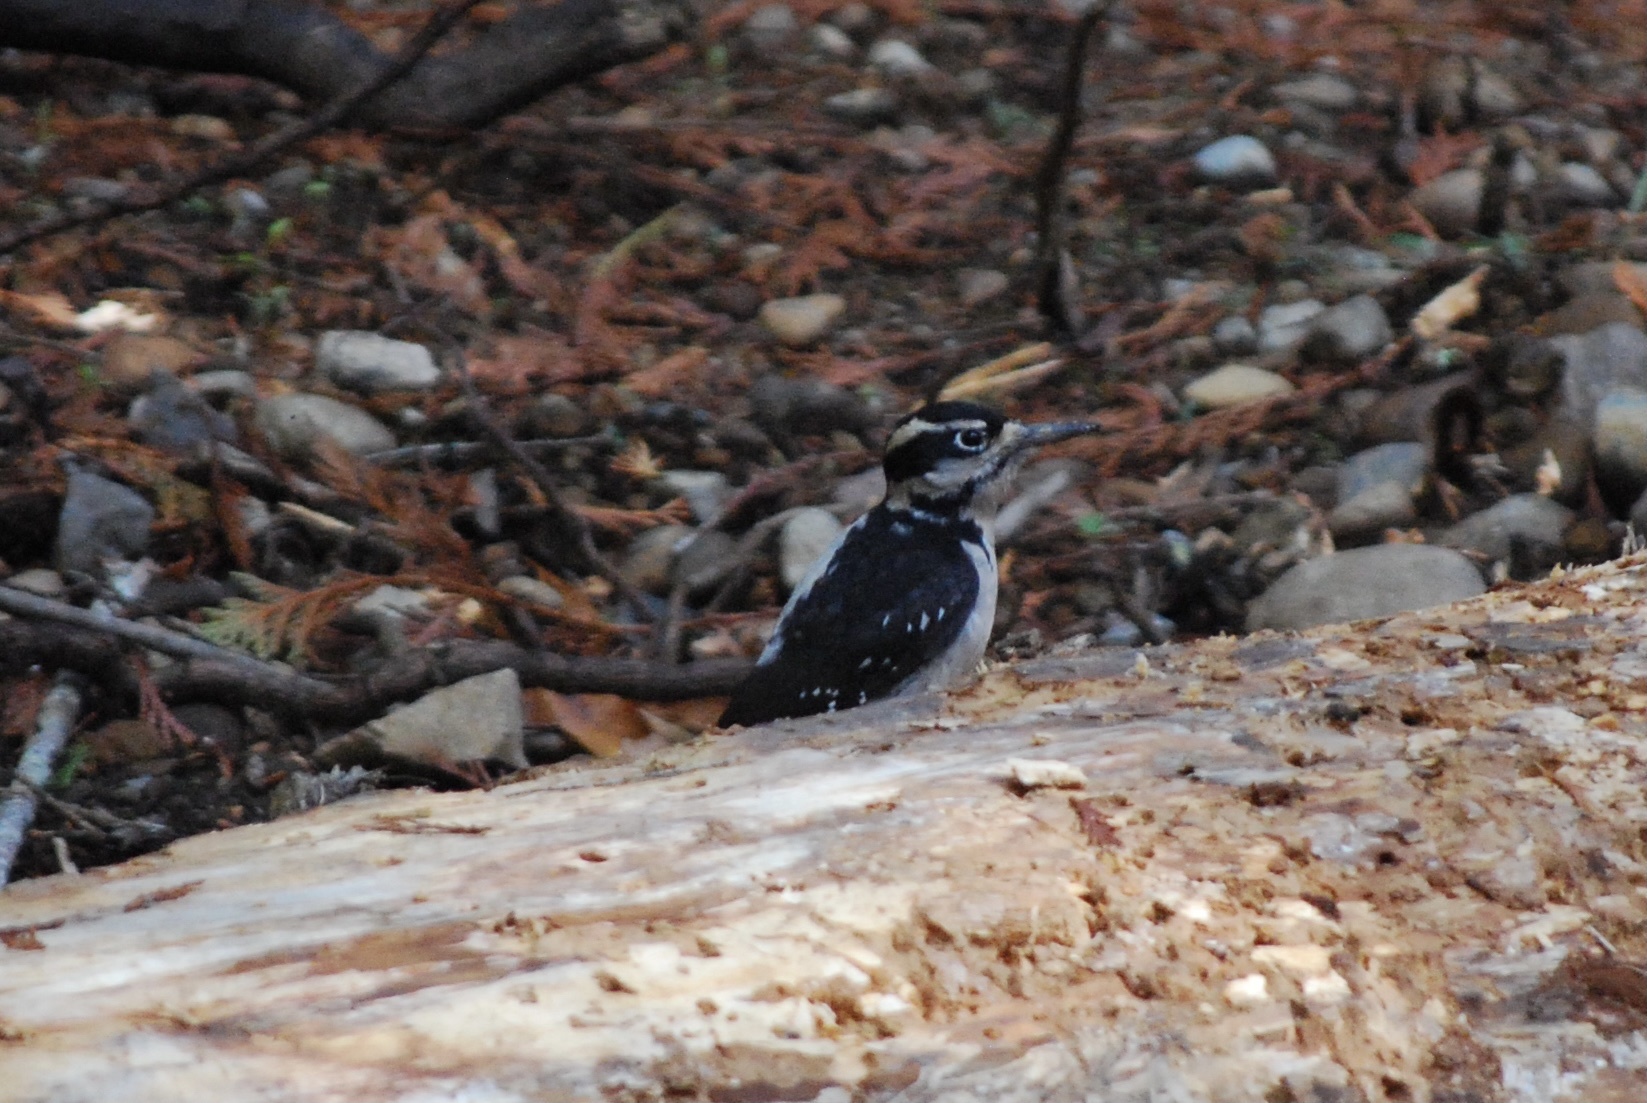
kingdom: Animalia
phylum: Chordata
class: Aves
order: Piciformes
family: Picidae
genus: Leuconotopicus
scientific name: Leuconotopicus villosus
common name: Hairy woodpecker
